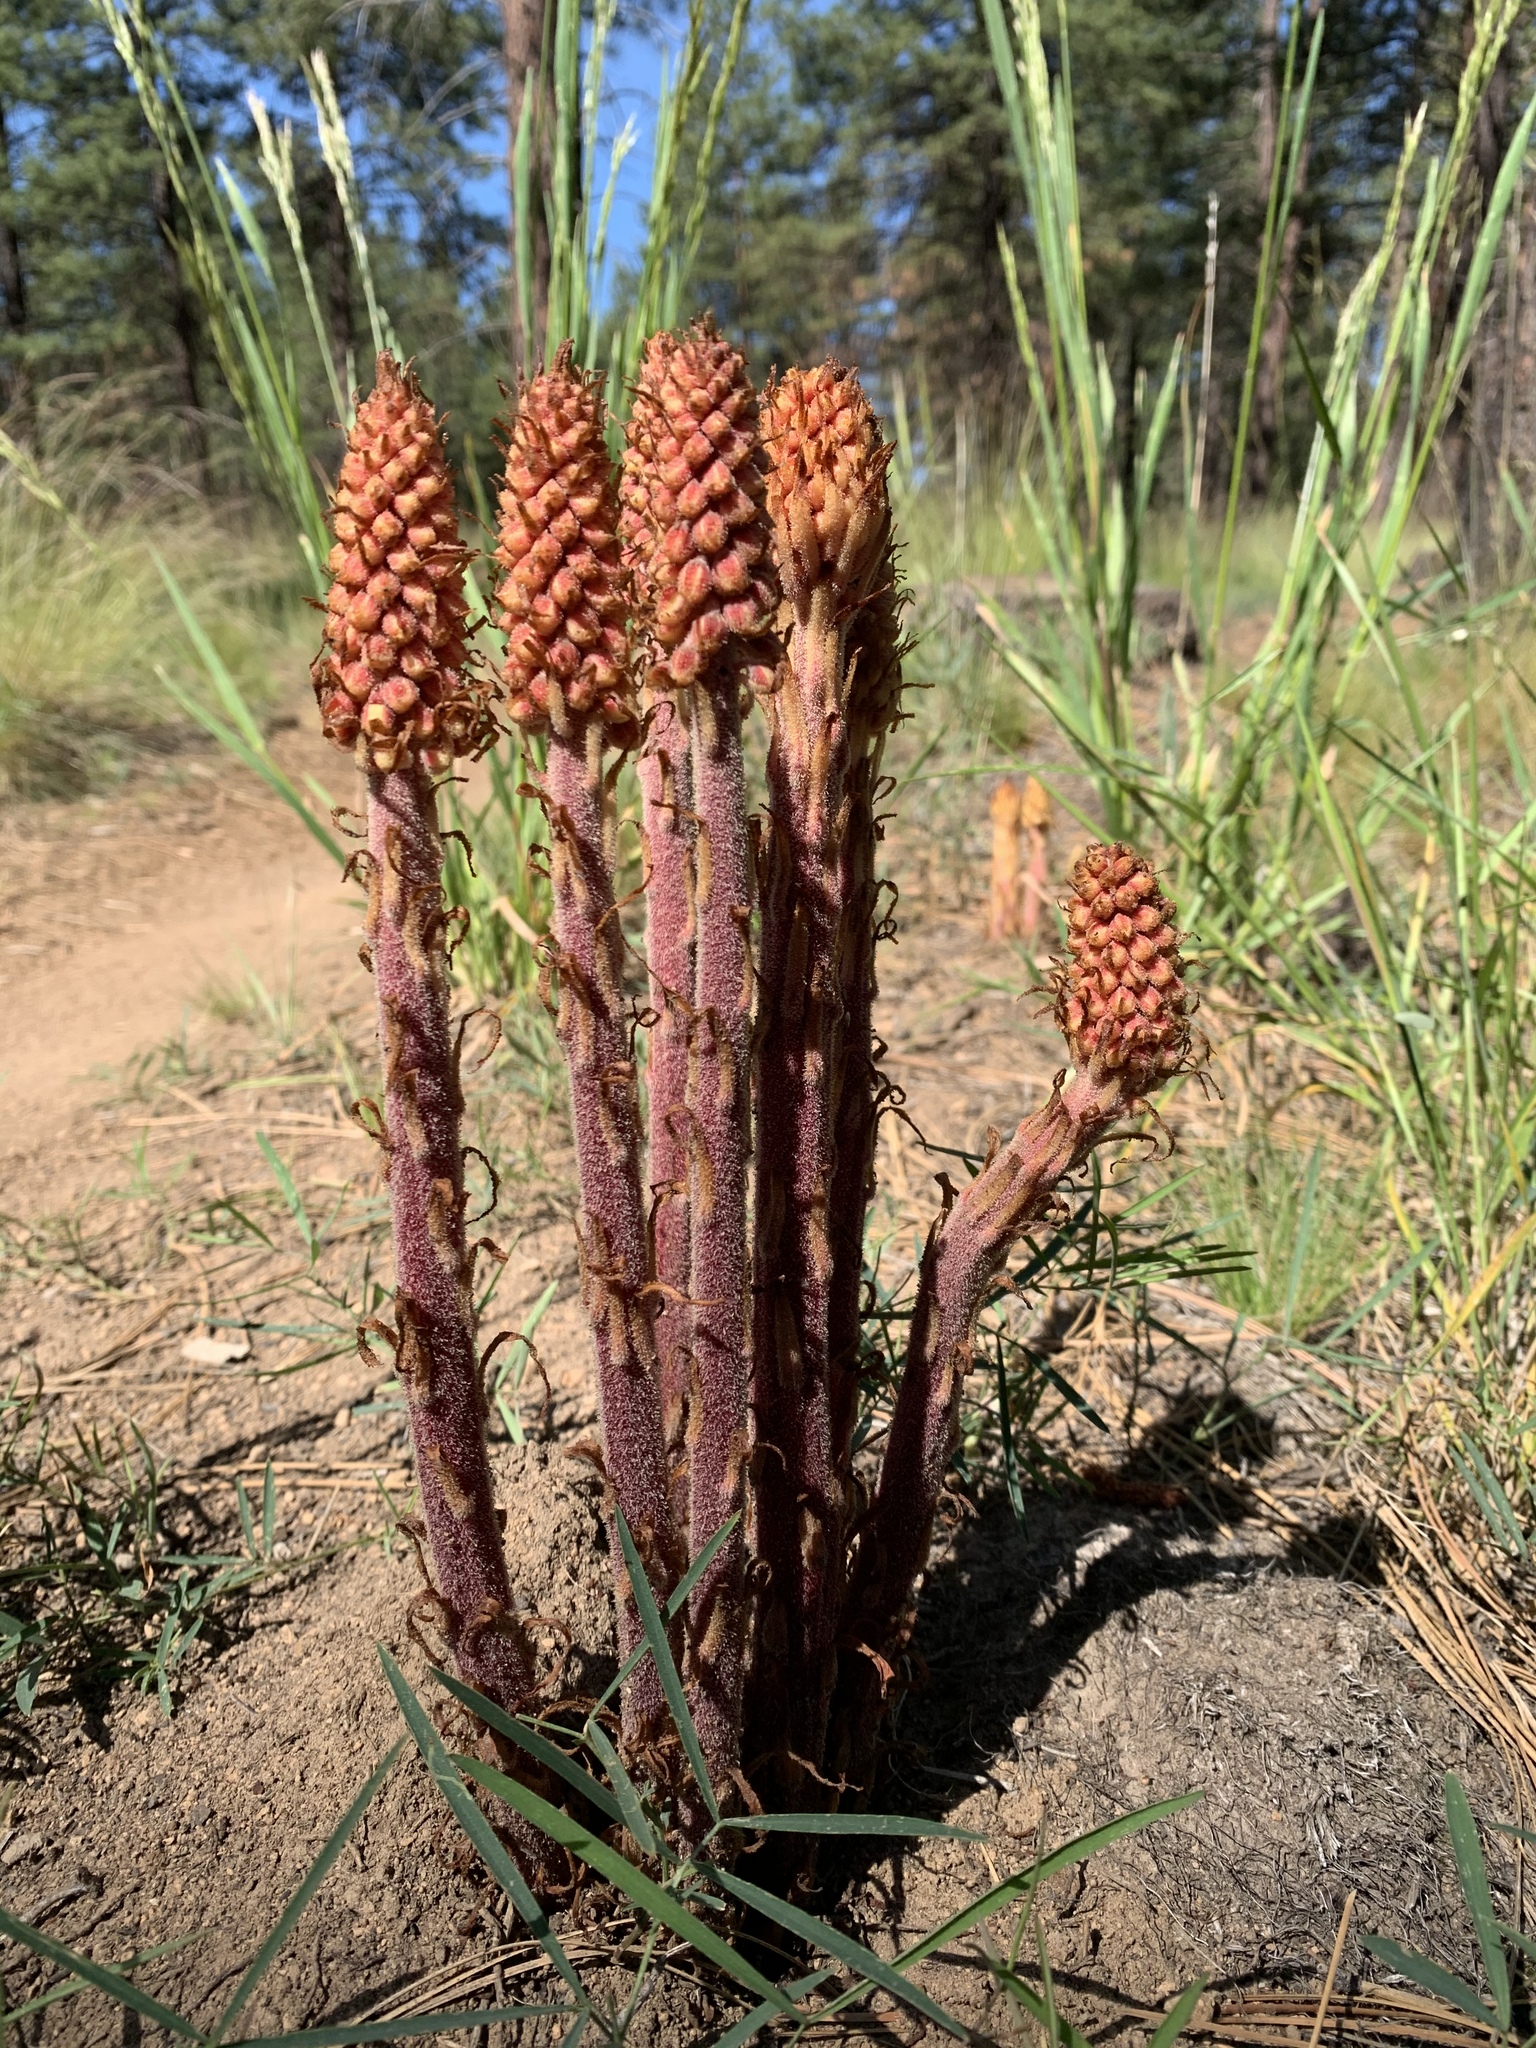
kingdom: Plantae
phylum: Tracheophyta
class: Magnoliopsida
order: Ericales
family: Ericaceae
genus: Pterospora
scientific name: Pterospora andromedea
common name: Giant bird's-nest
